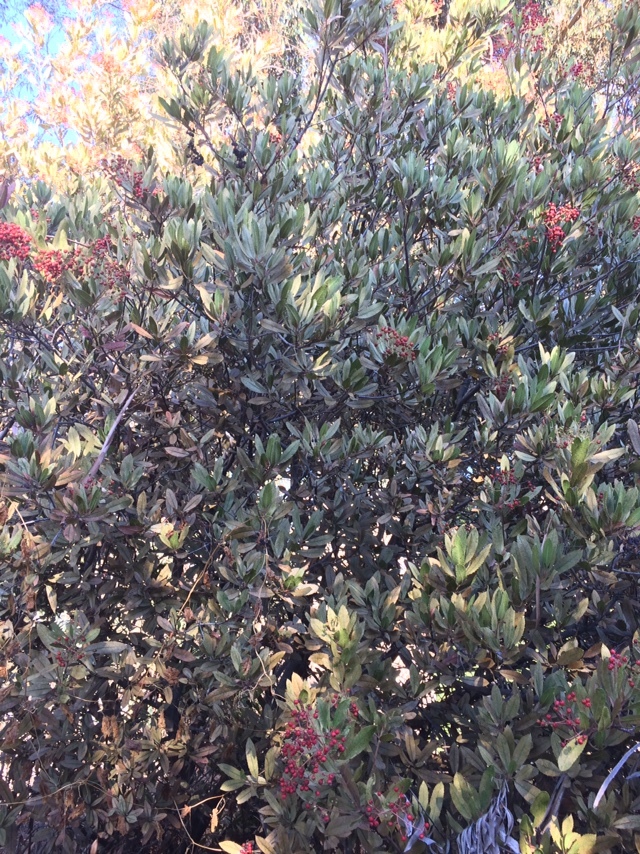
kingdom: Plantae
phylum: Tracheophyta
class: Magnoliopsida
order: Rosales
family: Rosaceae
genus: Heteromeles
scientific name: Heteromeles arbutifolia
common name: California-holly
